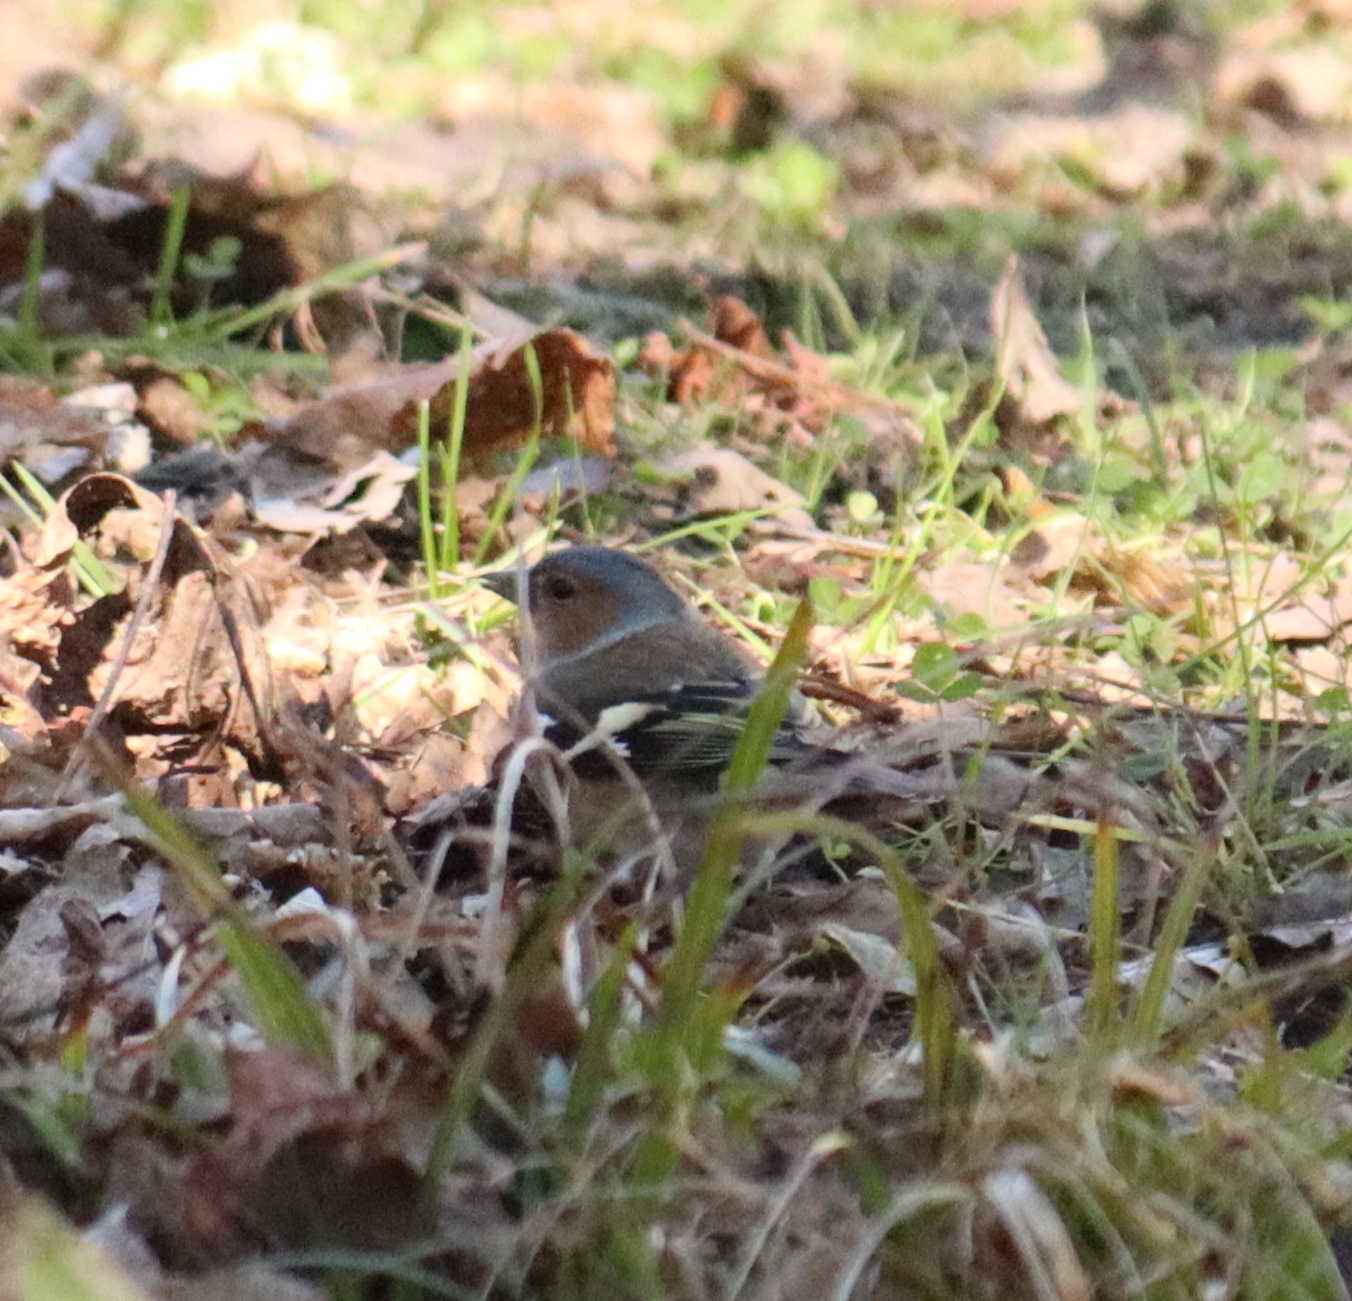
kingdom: Animalia
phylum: Chordata
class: Aves
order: Passeriformes
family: Fringillidae
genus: Fringilla
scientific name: Fringilla coelebs
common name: Common chaffinch
